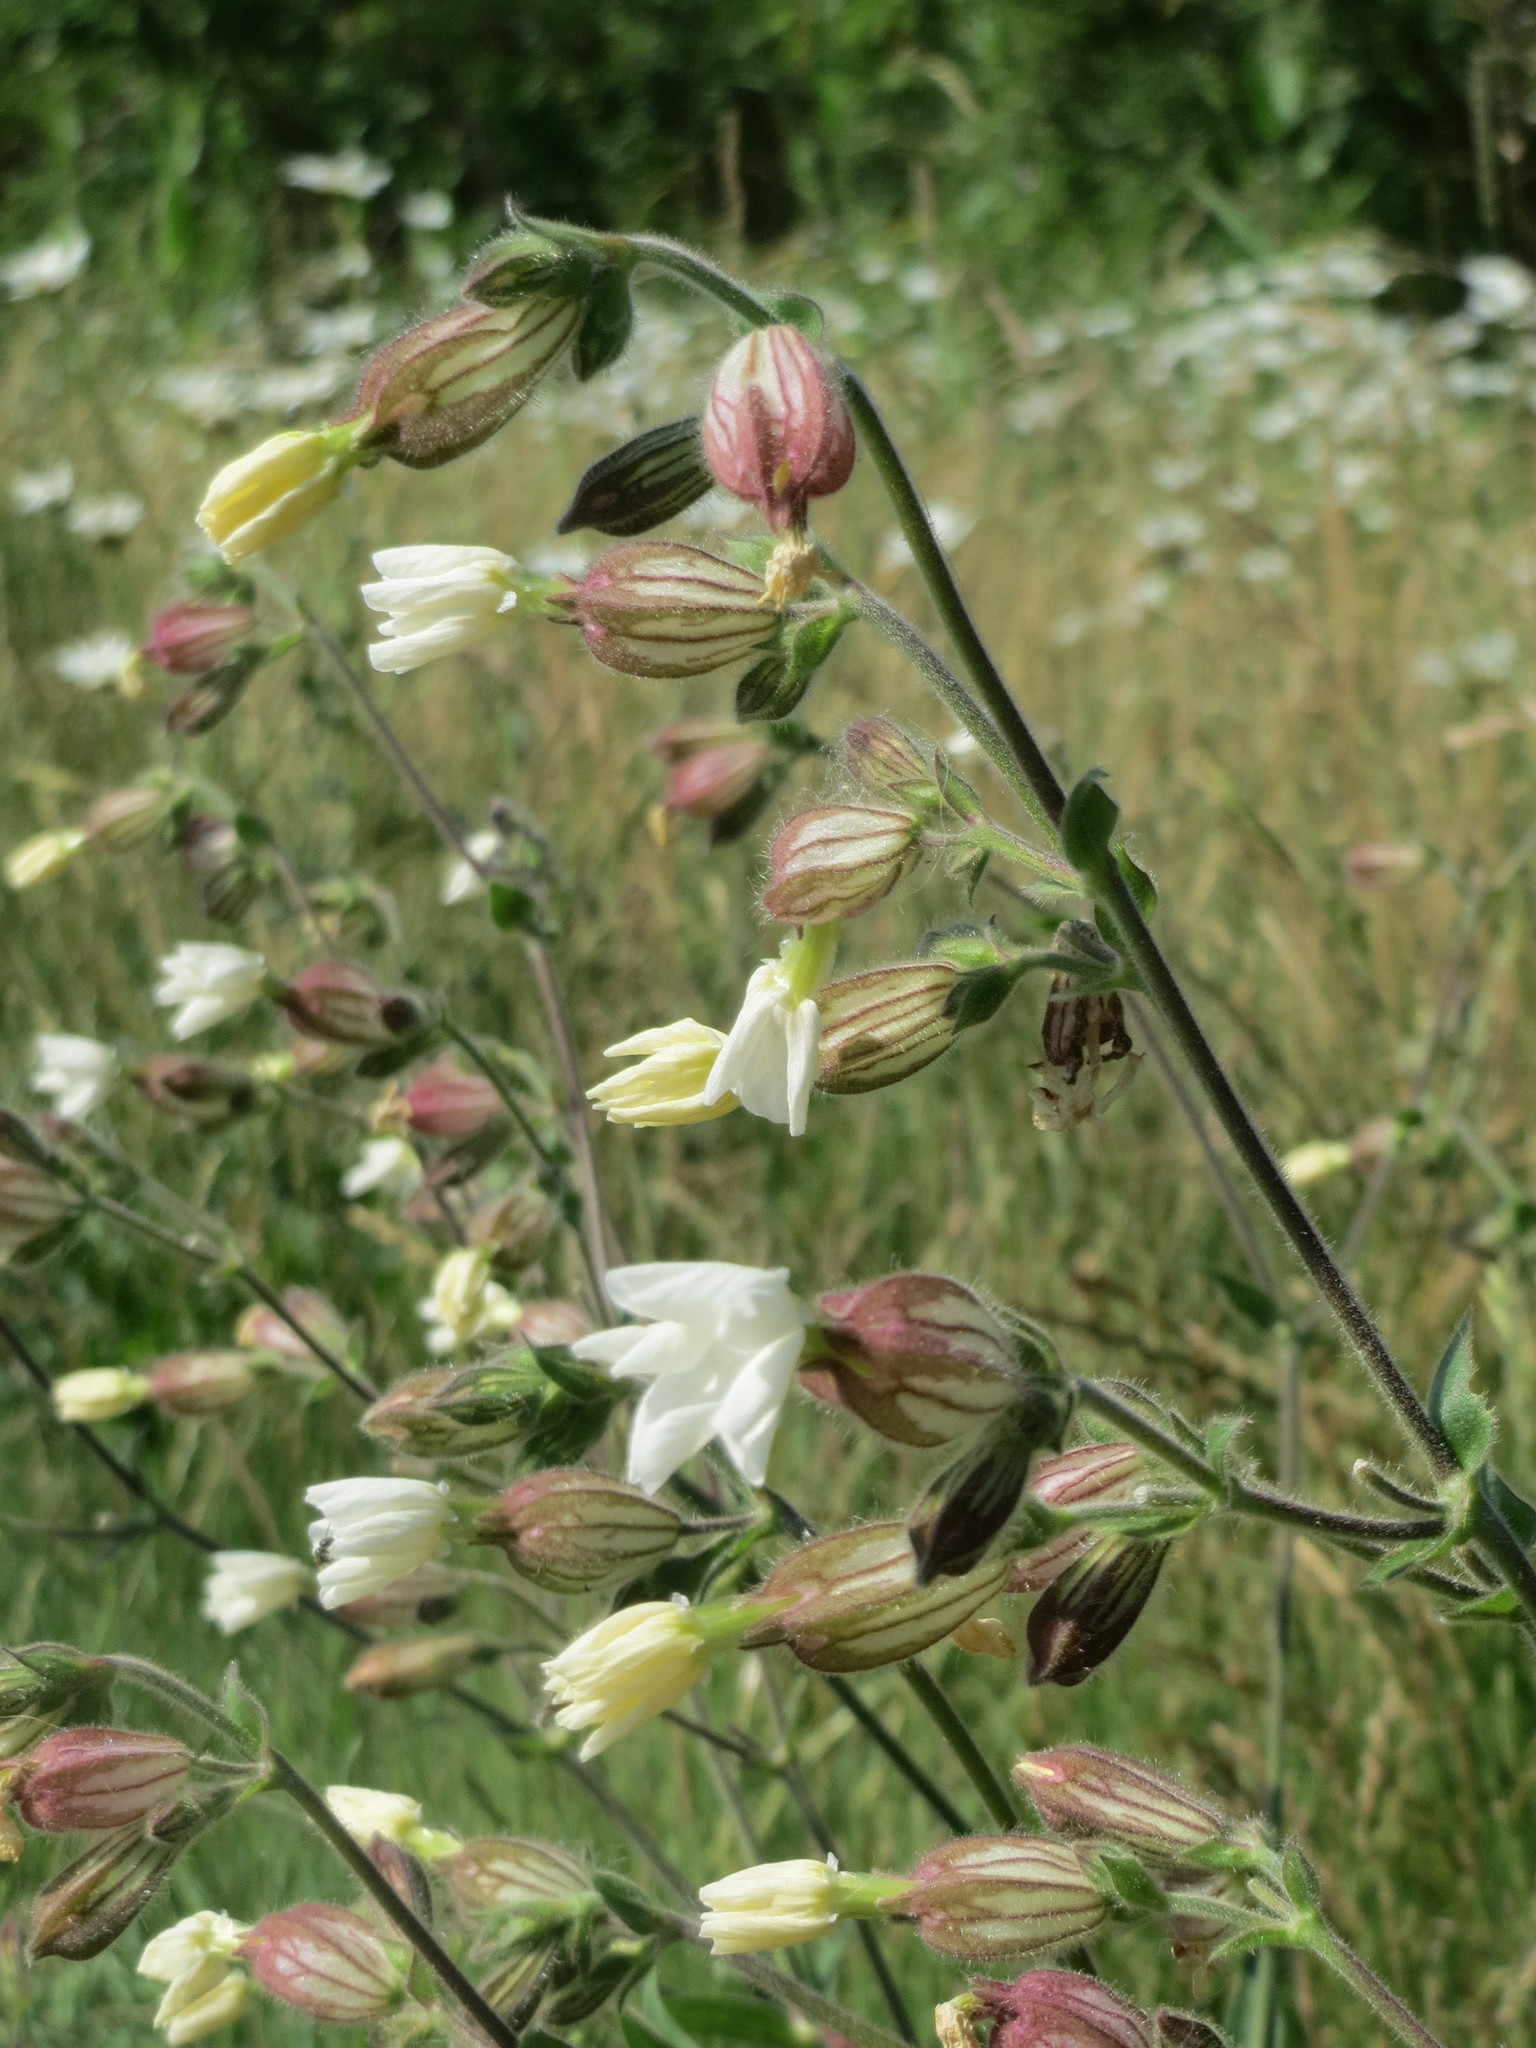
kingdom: Plantae
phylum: Tracheophyta
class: Magnoliopsida
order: Caryophyllales
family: Caryophyllaceae
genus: Silene
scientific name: Silene latifolia
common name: White campion
